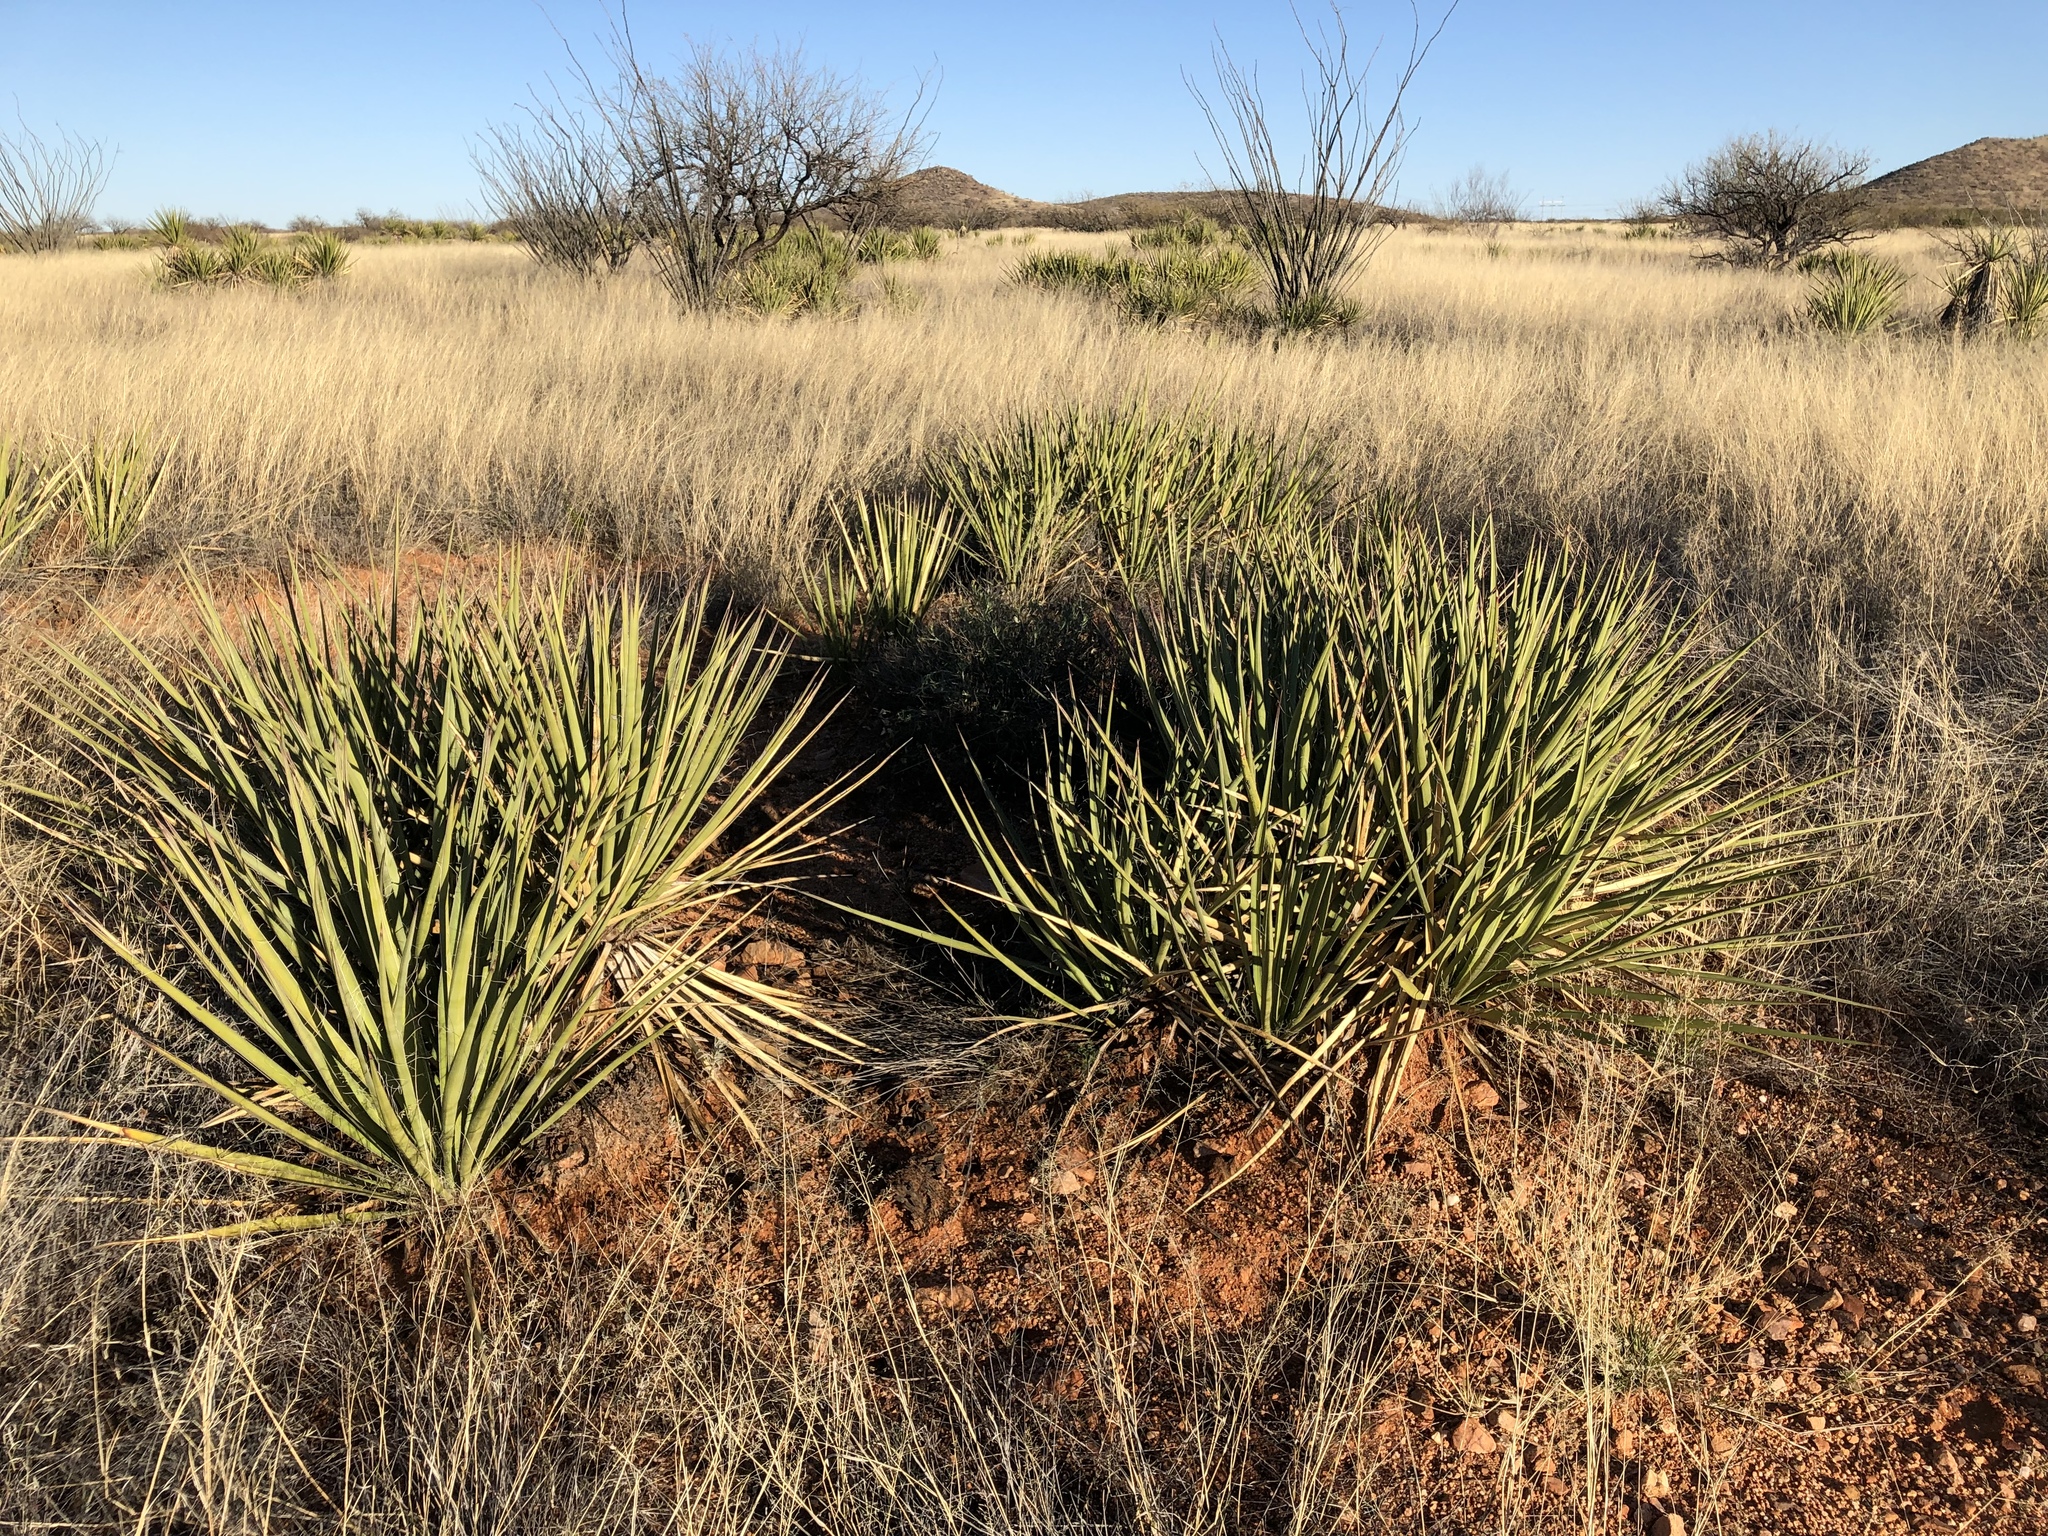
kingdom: Plantae
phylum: Tracheophyta
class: Liliopsida
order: Asparagales
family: Asparagaceae
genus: Yucca
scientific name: Yucca baccata
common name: Banana yucca
